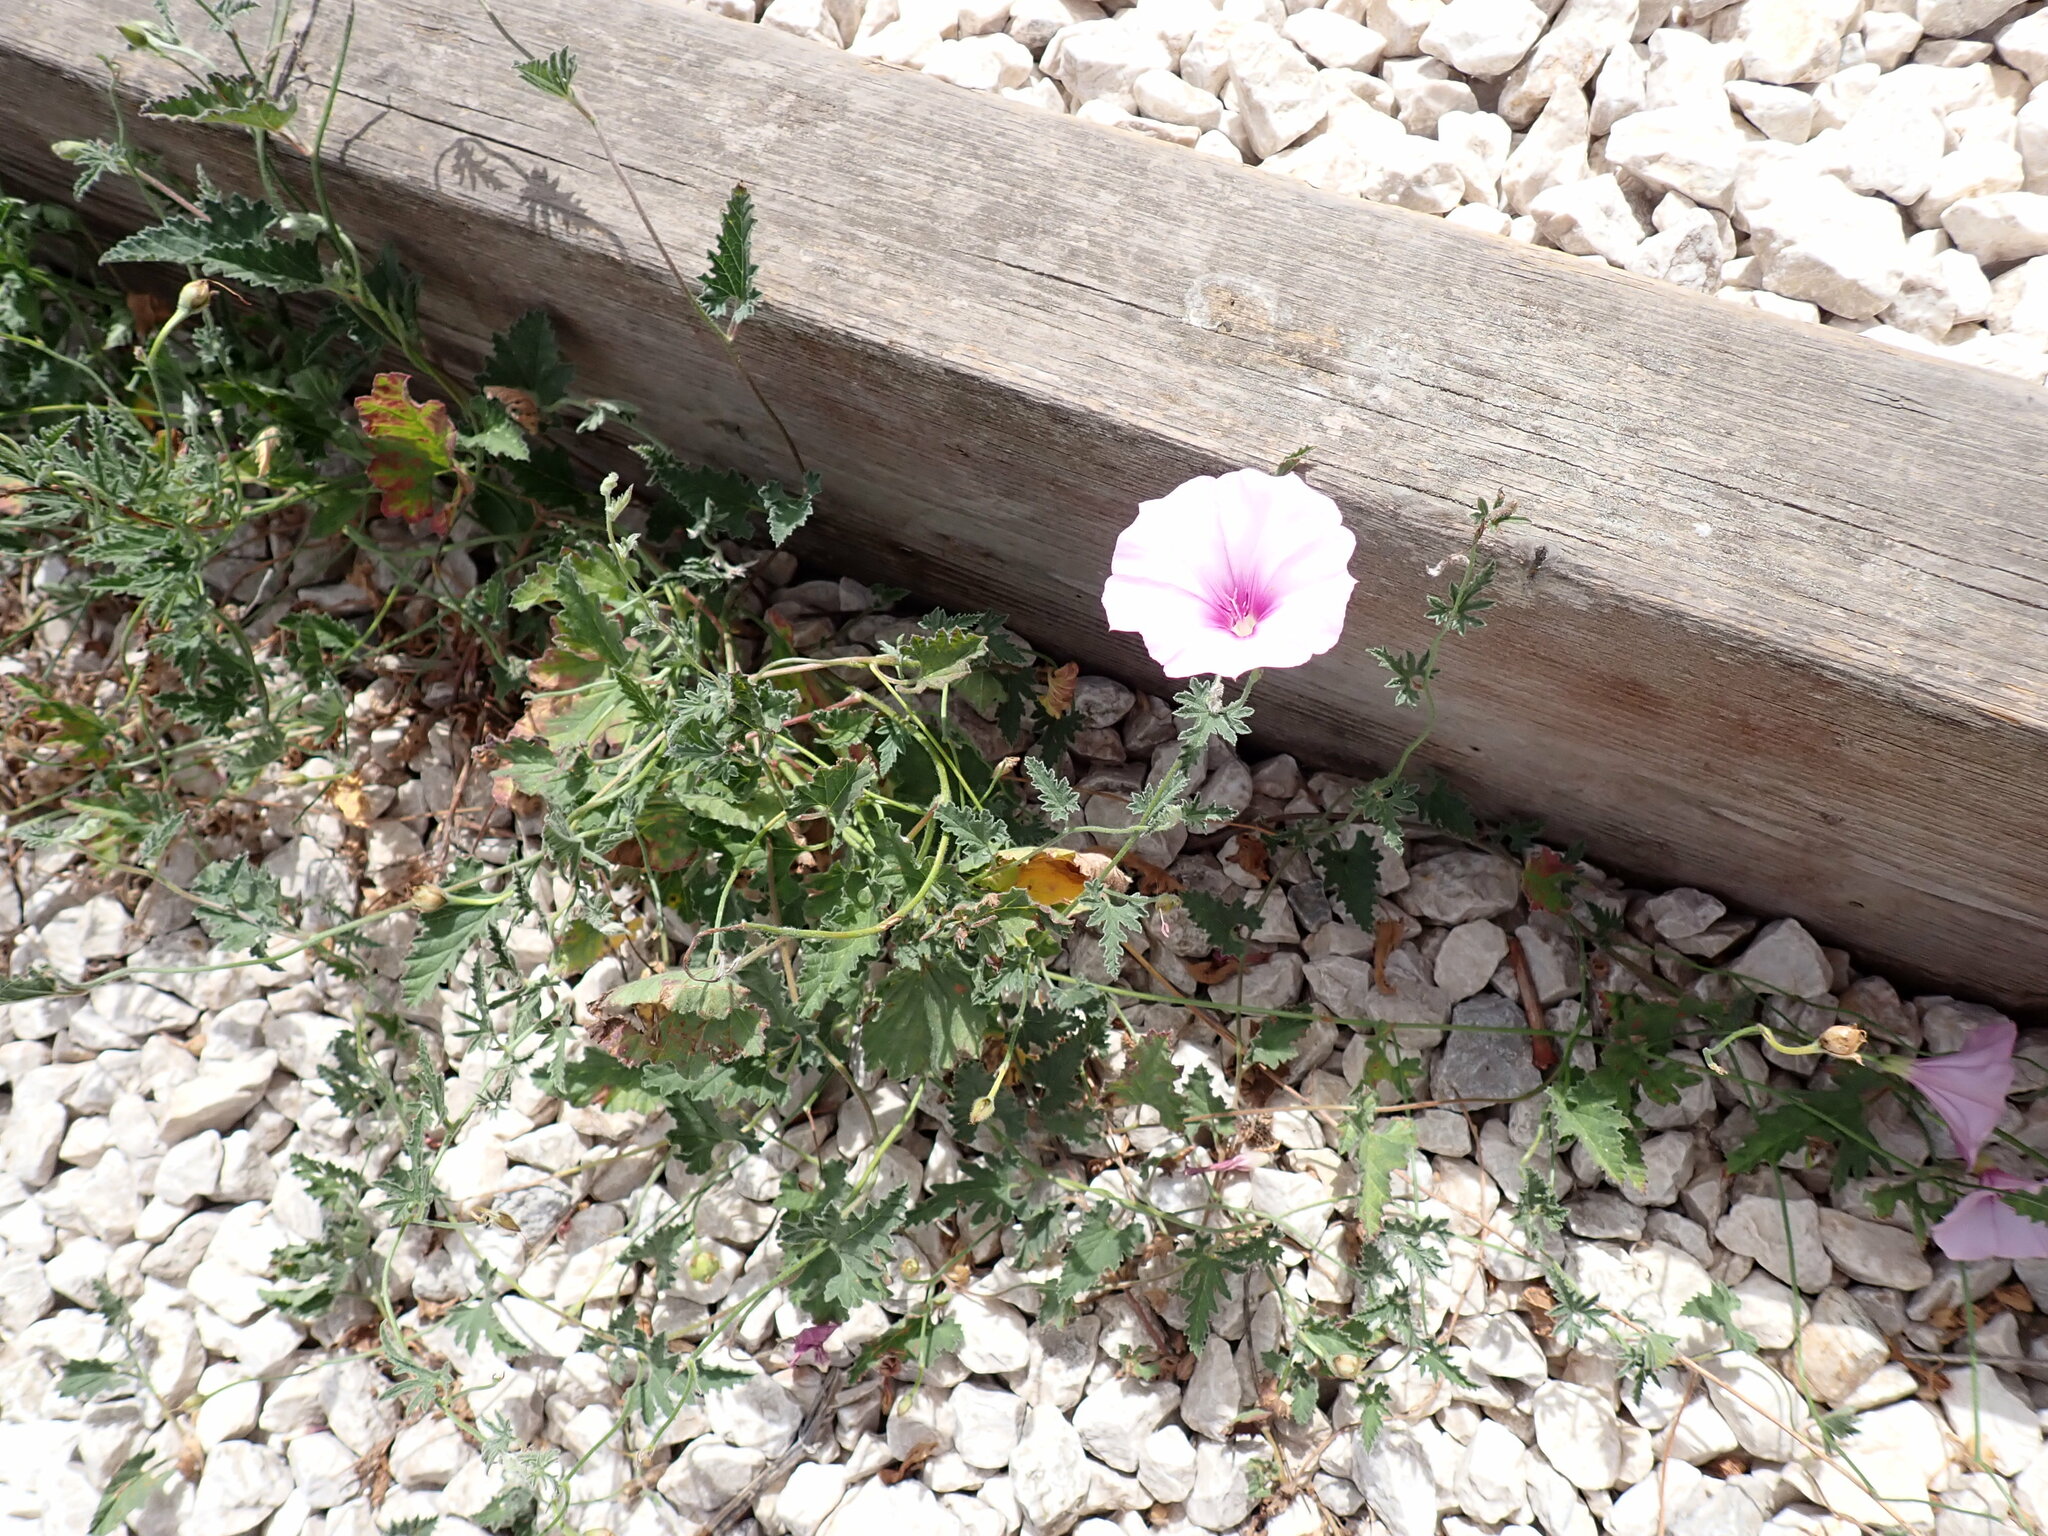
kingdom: Plantae
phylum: Tracheophyta
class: Magnoliopsida
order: Solanales
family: Convolvulaceae
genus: Convolvulus
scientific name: Convolvulus althaeoides
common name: Mallow bindweed
